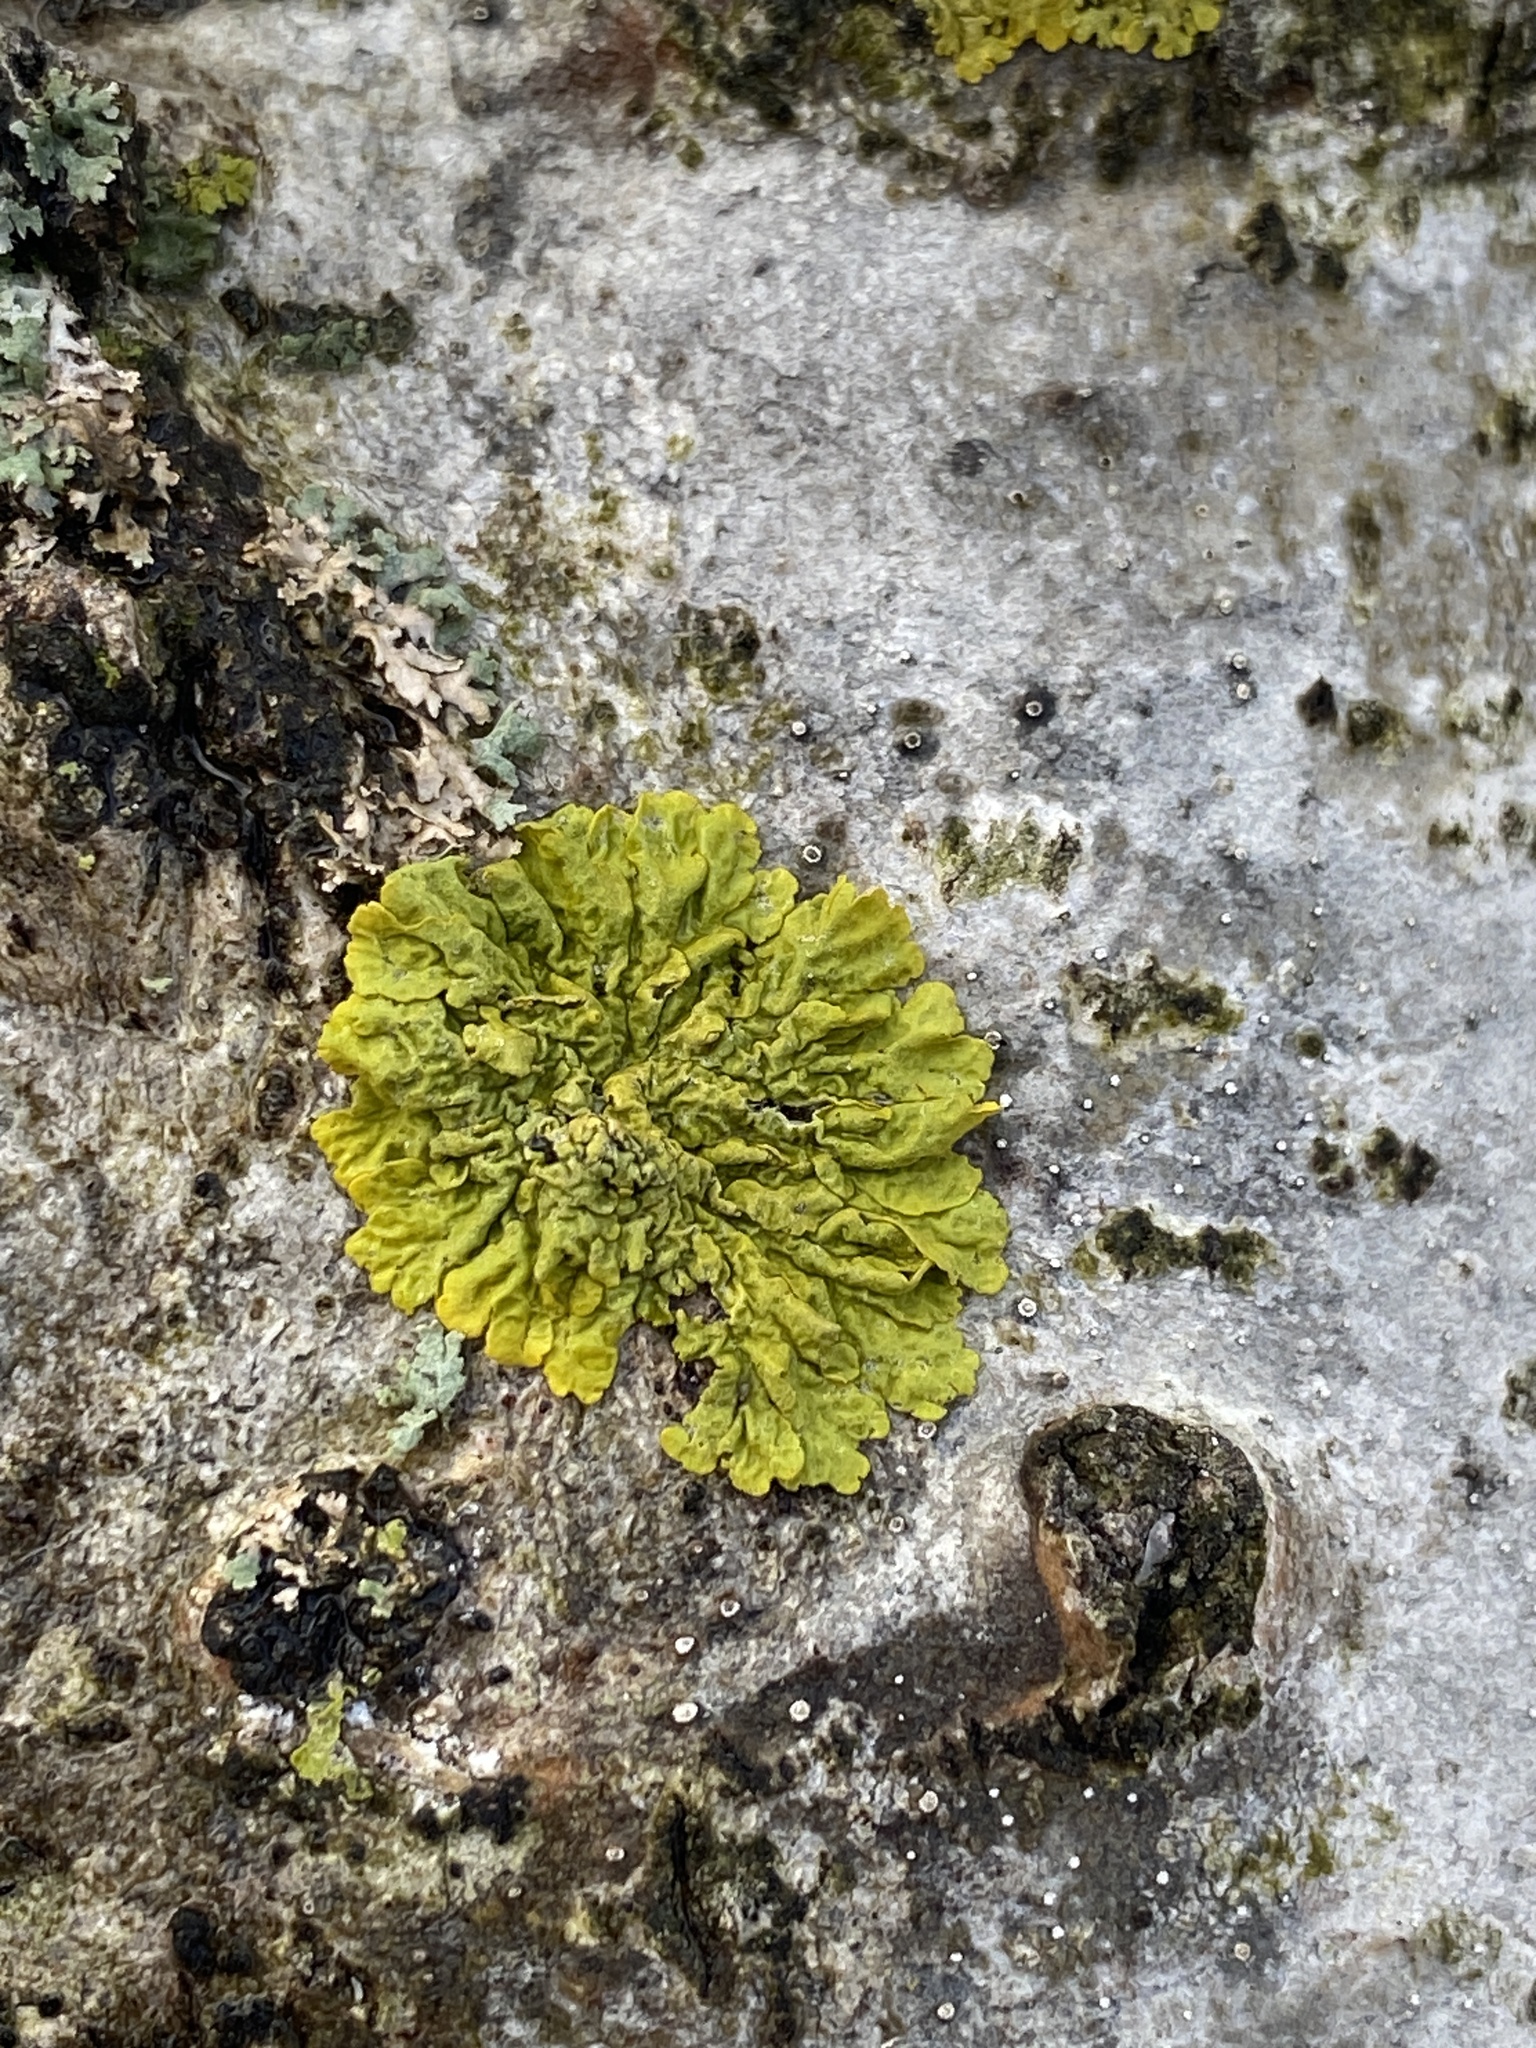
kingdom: Fungi
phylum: Ascomycota
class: Lecanoromycetes
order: Teloschistales
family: Teloschistaceae
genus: Xanthoria
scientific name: Xanthoria parietina
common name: Common orange lichen
